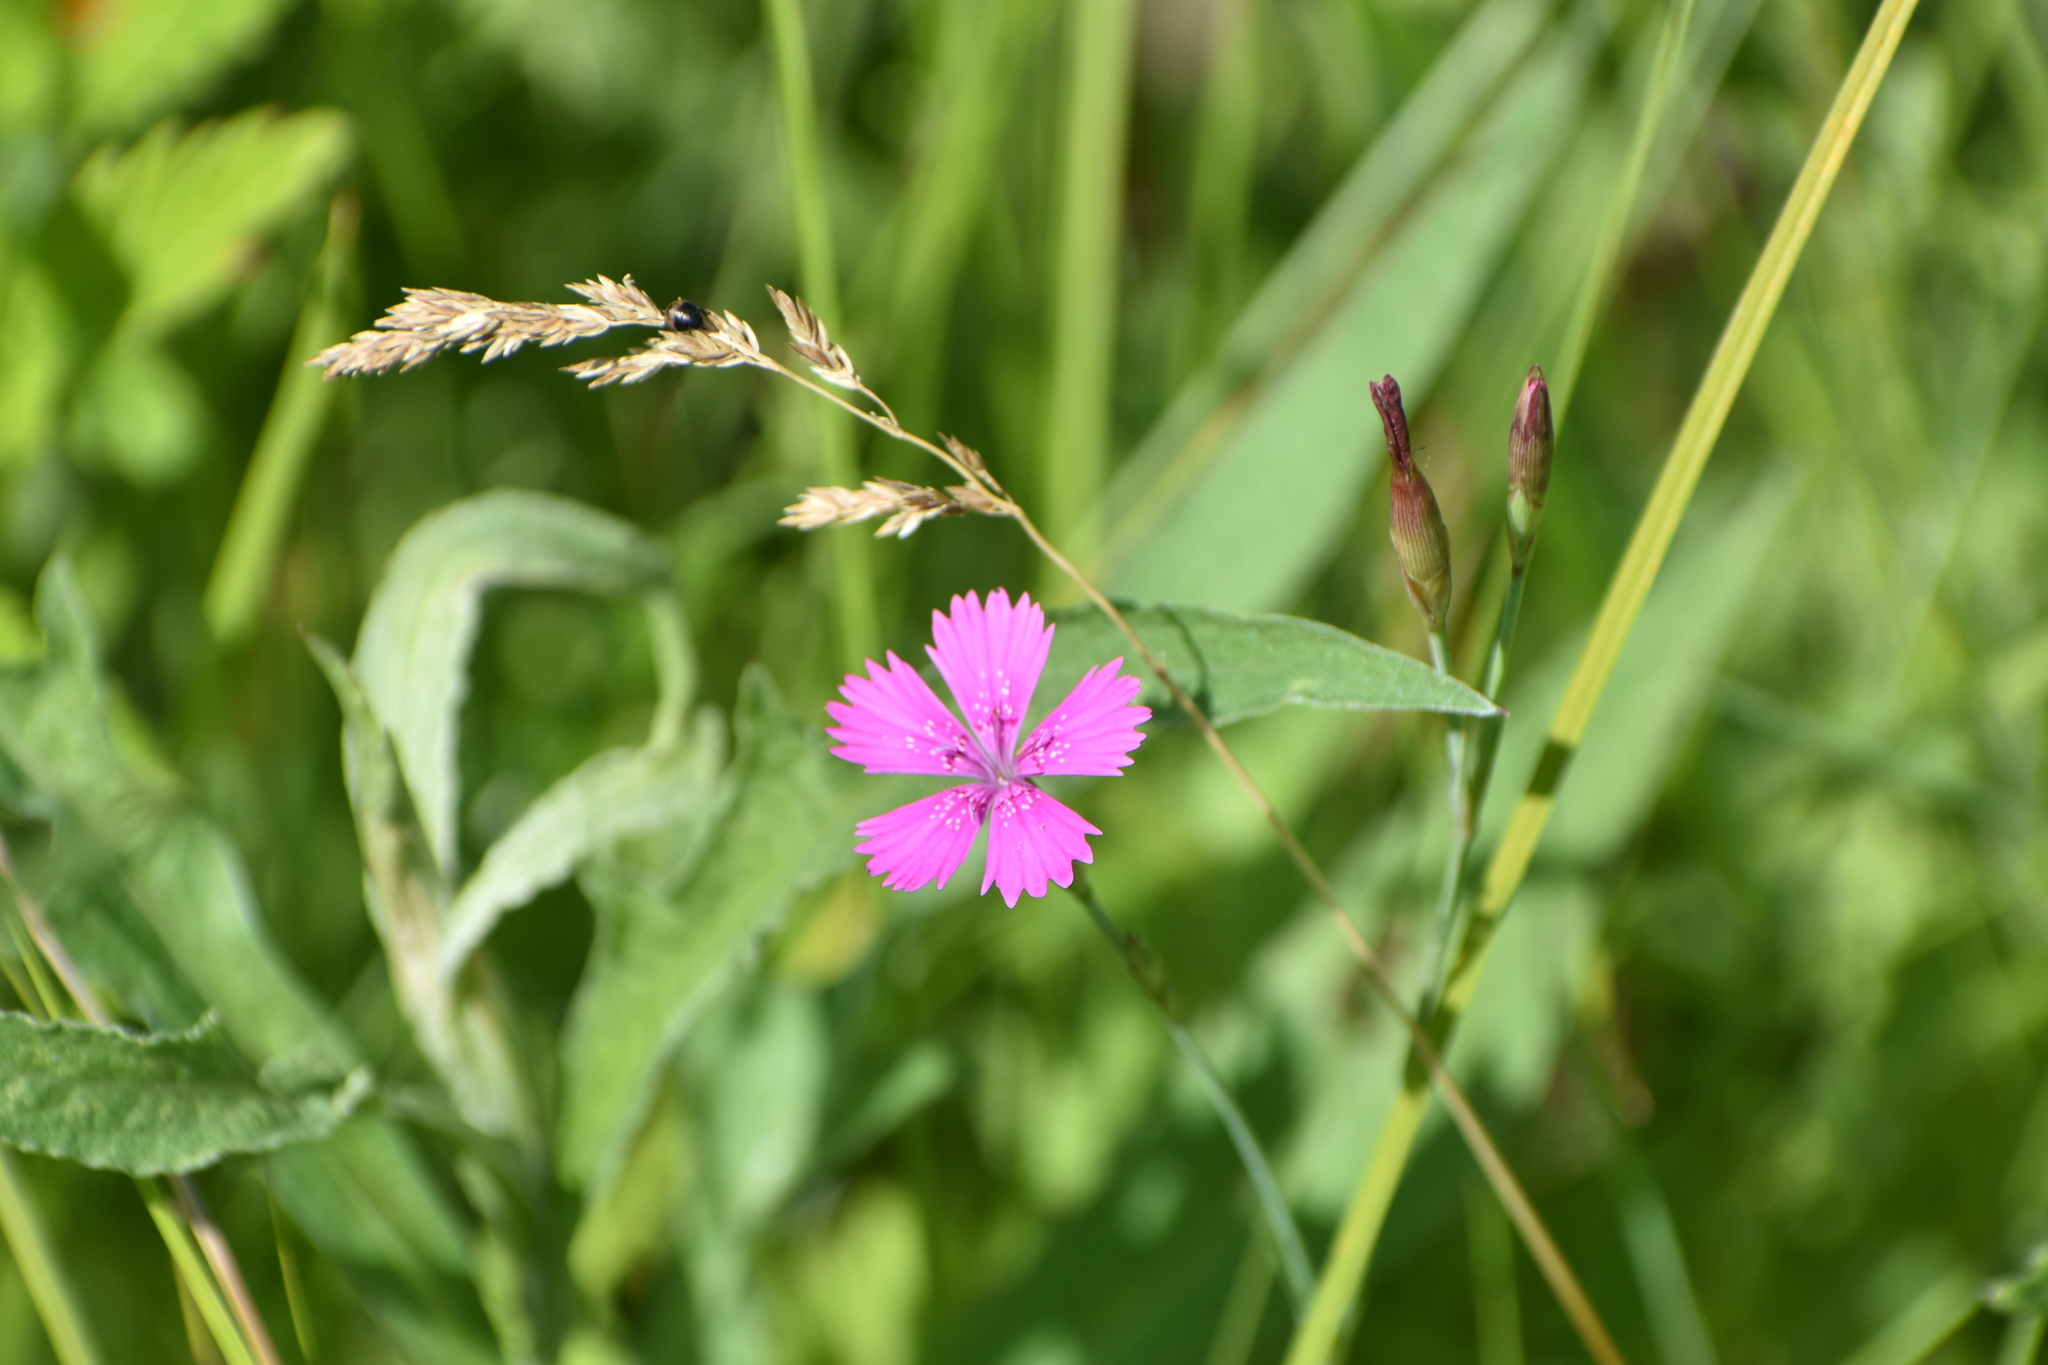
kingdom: Plantae
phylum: Tracheophyta
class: Magnoliopsida
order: Caryophyllales
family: Caryophyllaceae
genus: Dianthus
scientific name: Dianthus deltoides
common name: Maiden pink
